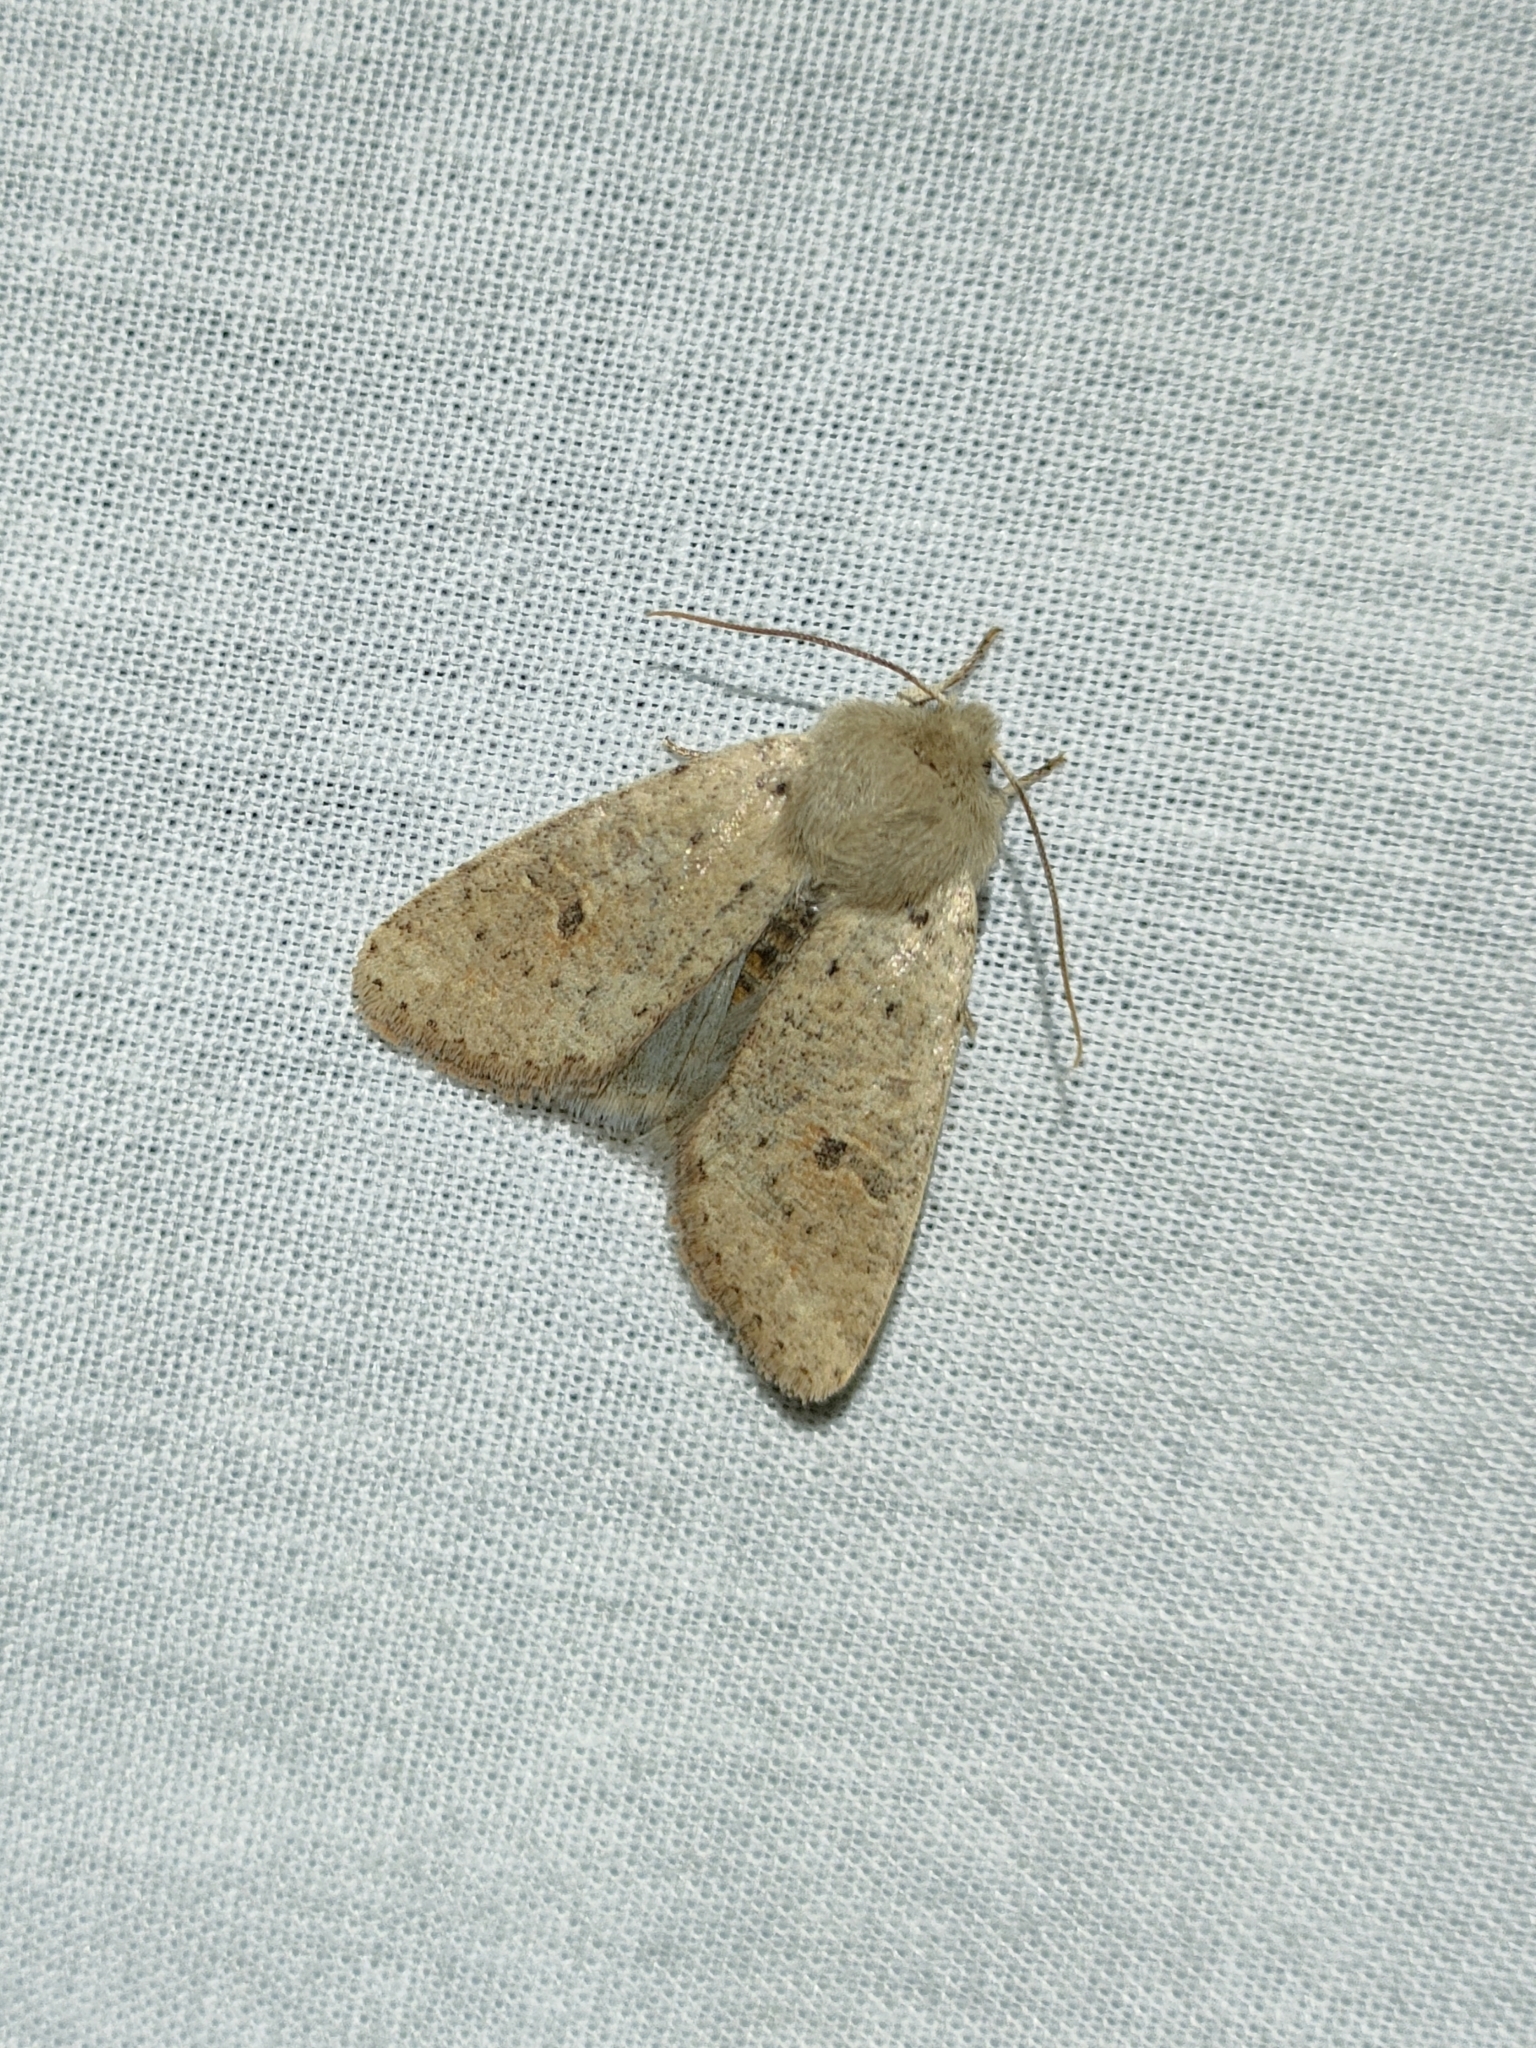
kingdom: Animalia
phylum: Arthropoda
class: Insecta
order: Lepidoptera
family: Noctuidae
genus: Orthosia
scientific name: Orthosia cruda
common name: Small quaker
